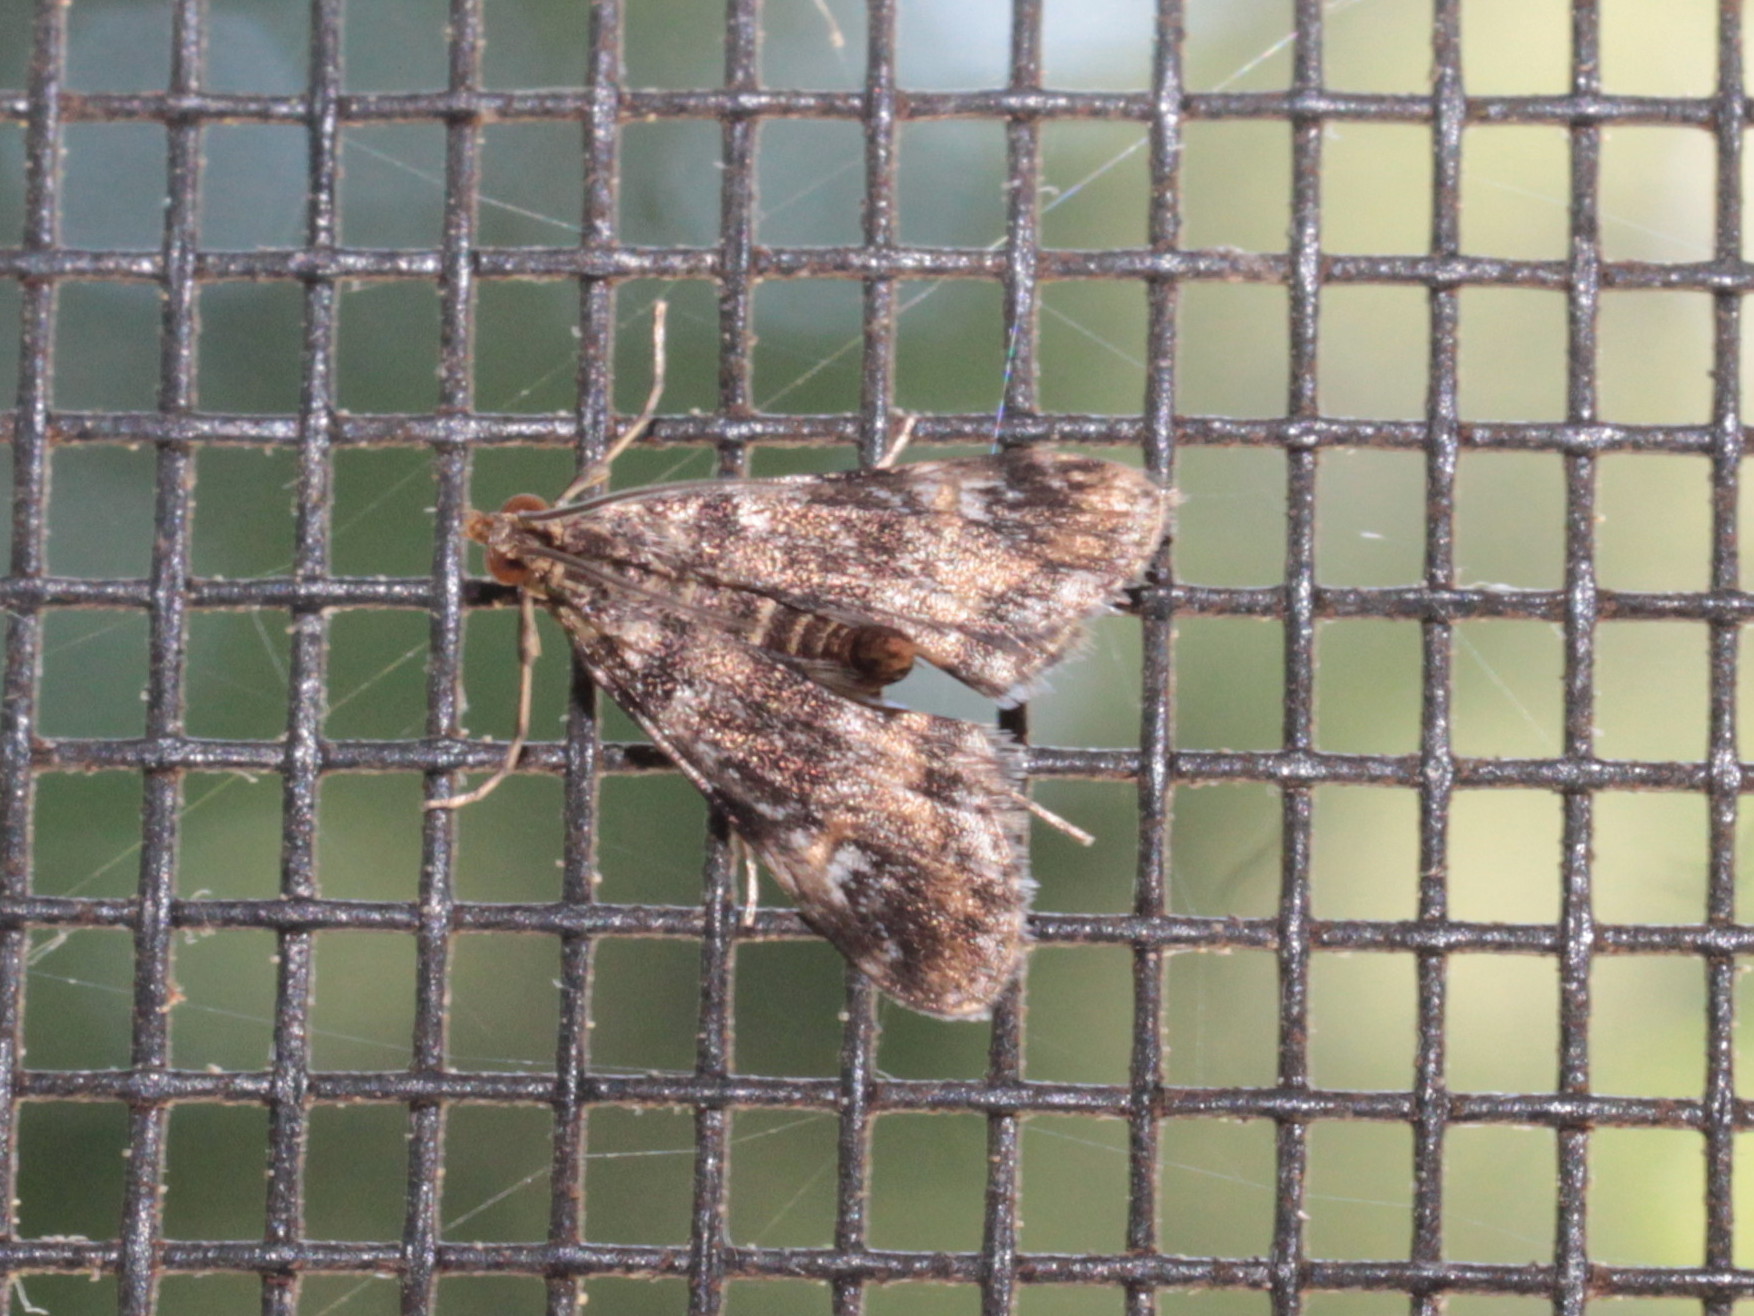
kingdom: Animalia
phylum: Arthropoda
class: Insecta
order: Lepidoptera
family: Crambidae
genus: Elophila
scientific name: Elophila obliteralis
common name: Waterlily leafcutter moth
